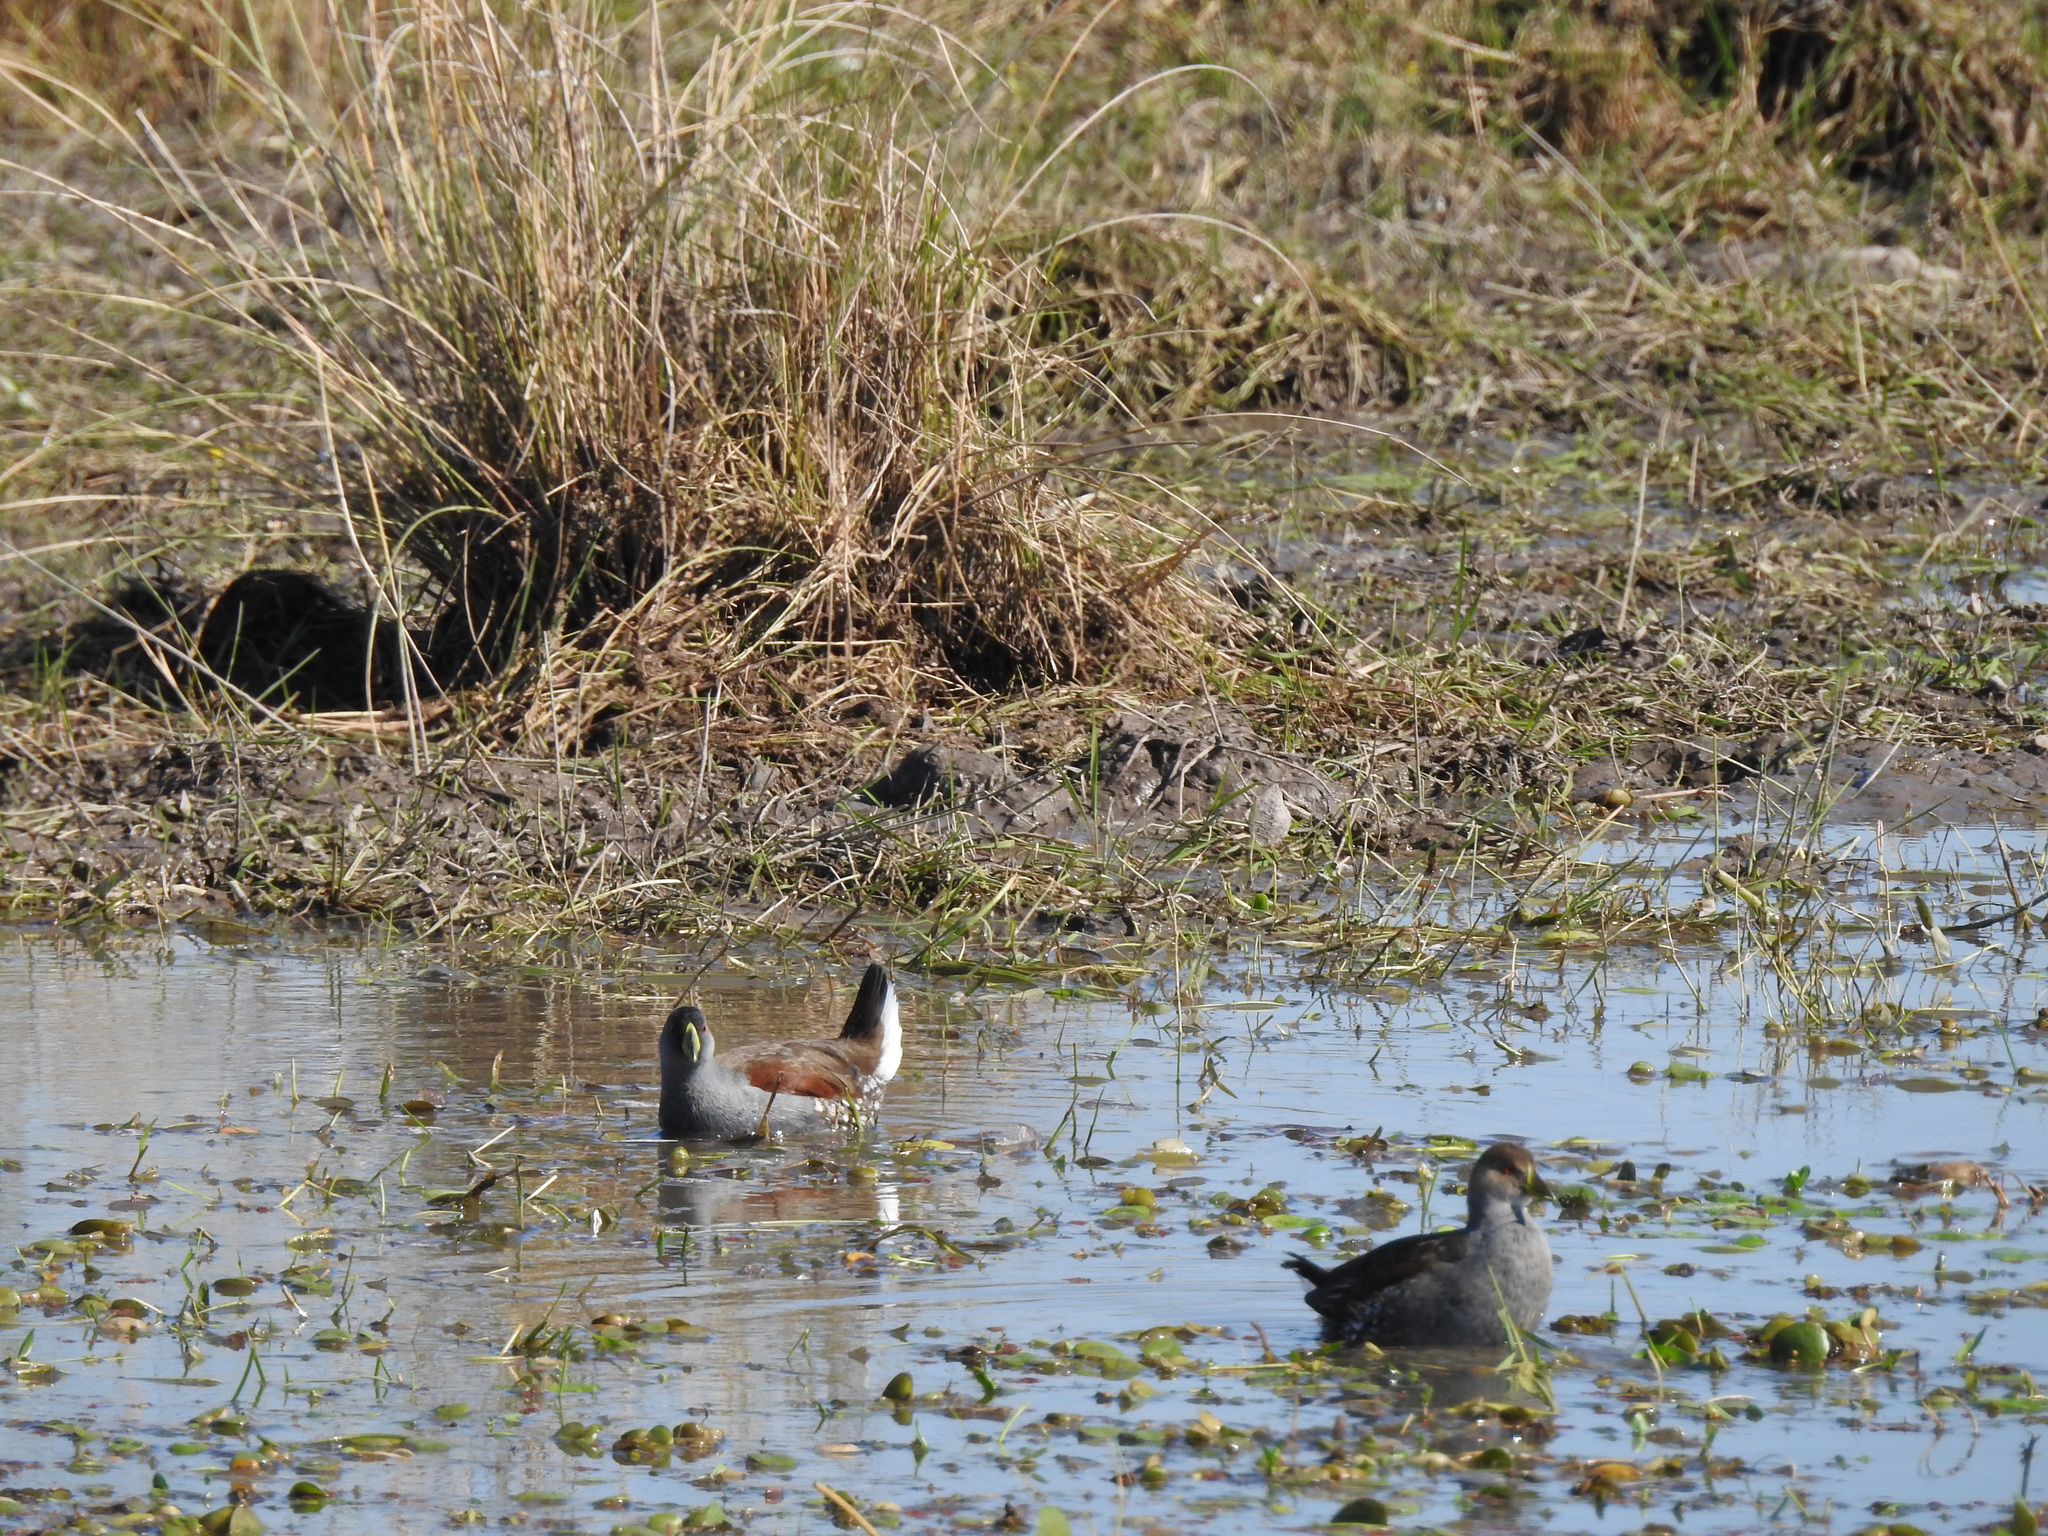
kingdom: Animalia
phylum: Chordata
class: Aves
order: Gruiformes
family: Rallidae
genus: Gallinula
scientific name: Gallinula melanops
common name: Spot-flanked gallinule
